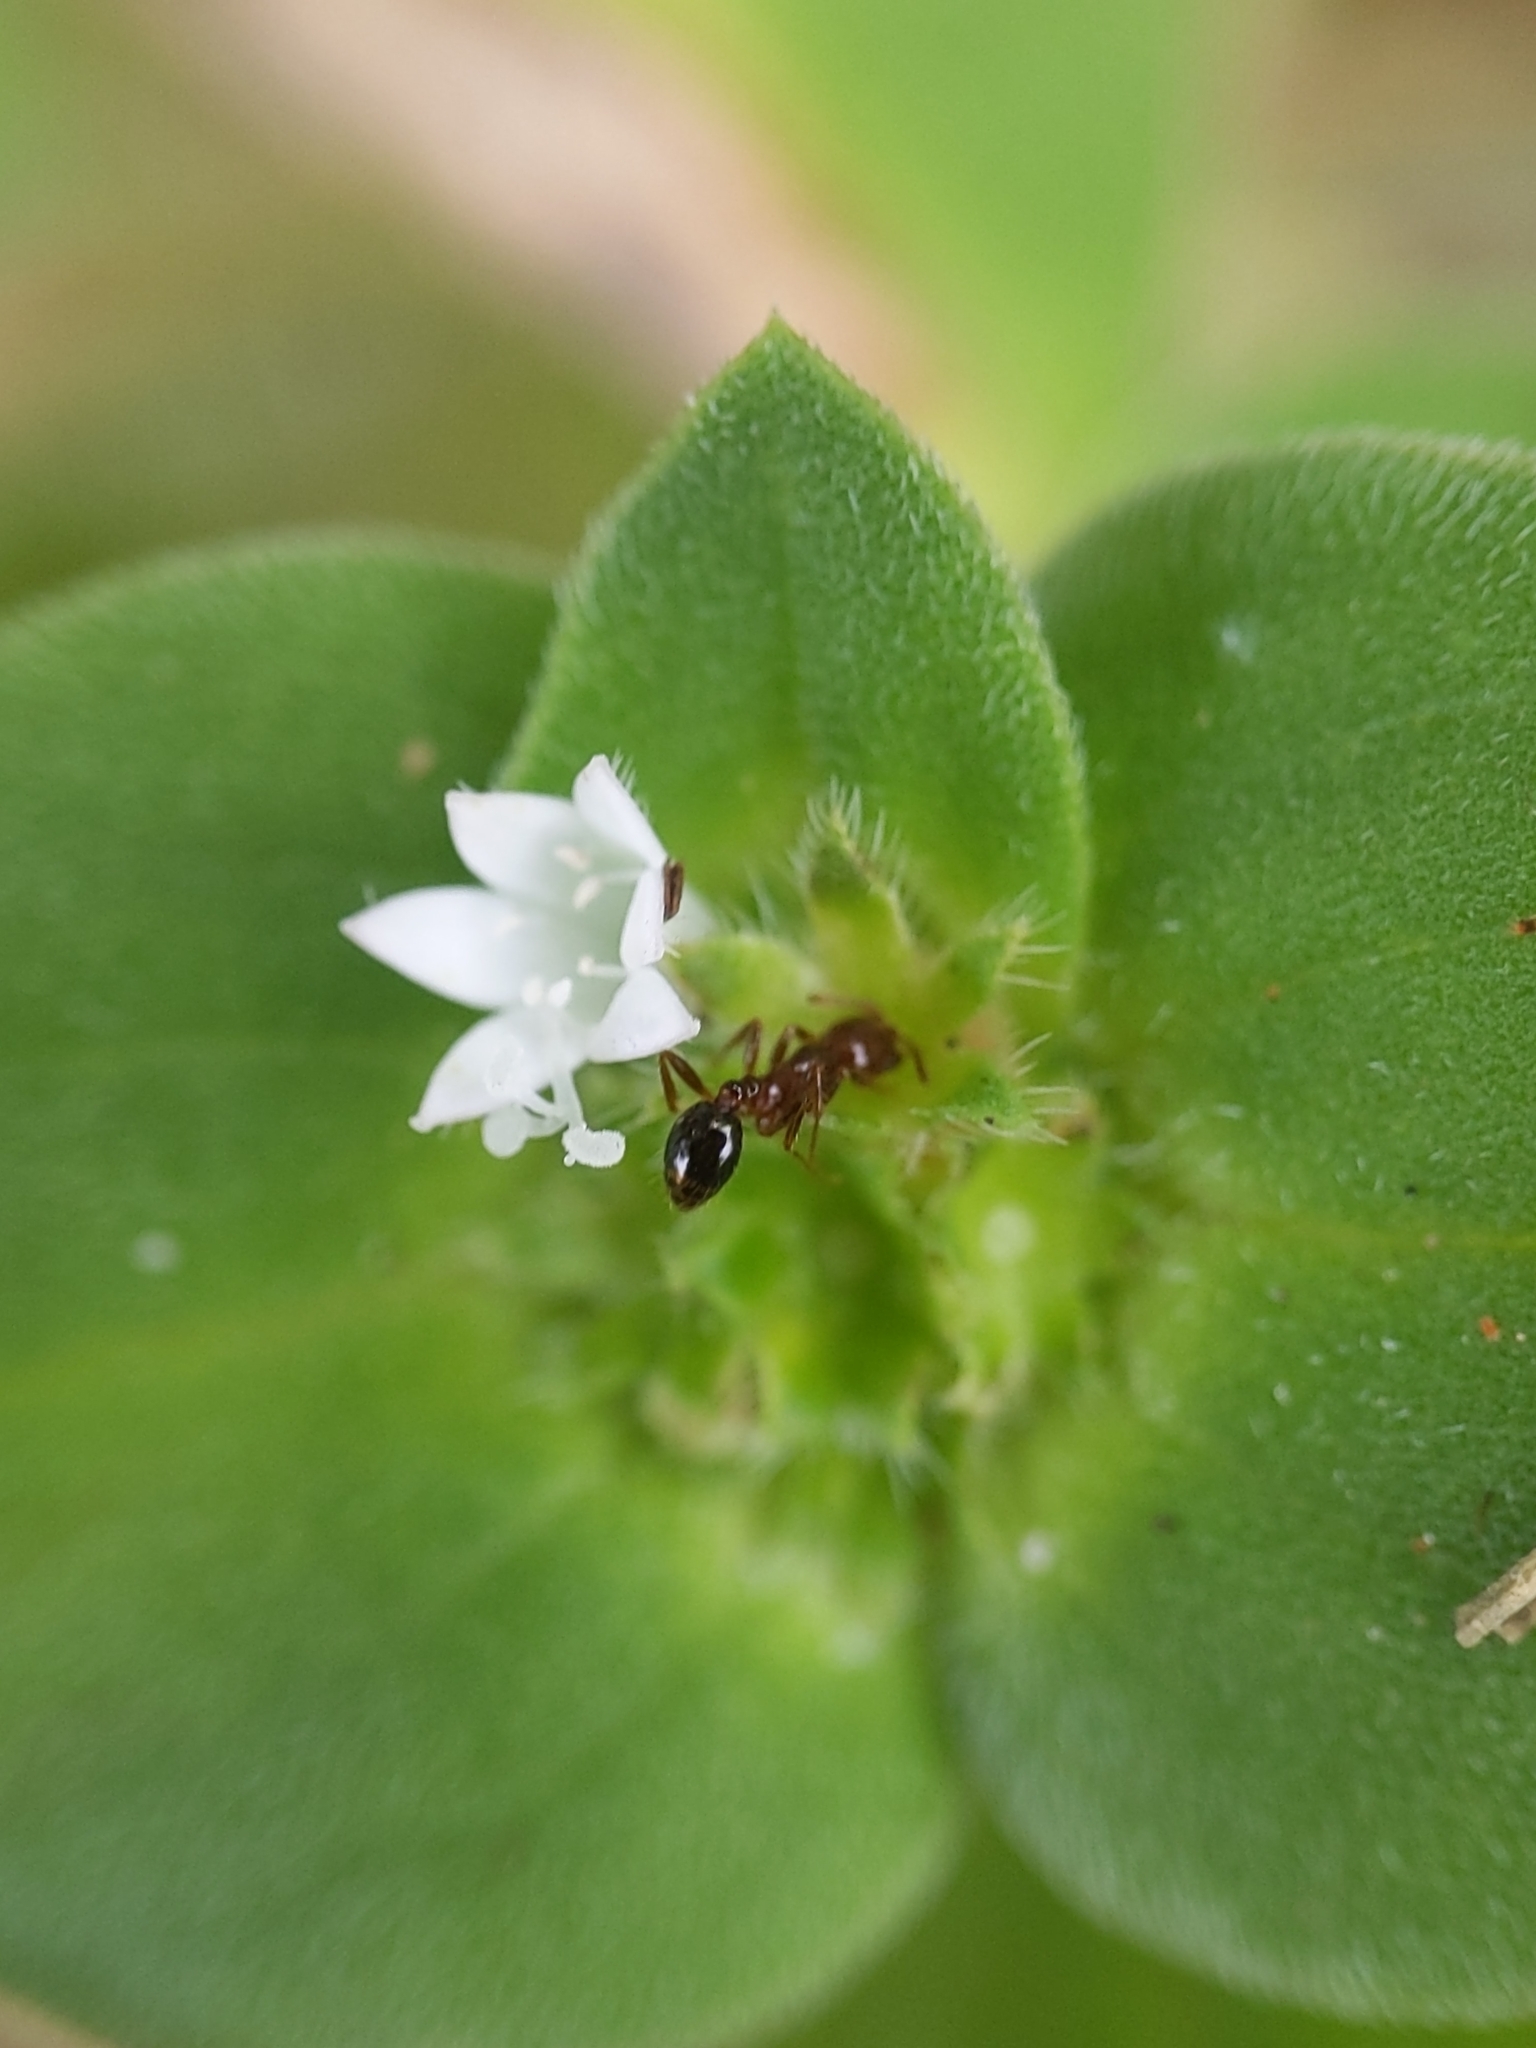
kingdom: Animalia
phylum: Arthropoda
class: Insecta
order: Hymenoptera
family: Formicidae
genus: Solenopsis
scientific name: Solenopsis invicta
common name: Red imported fire ant
